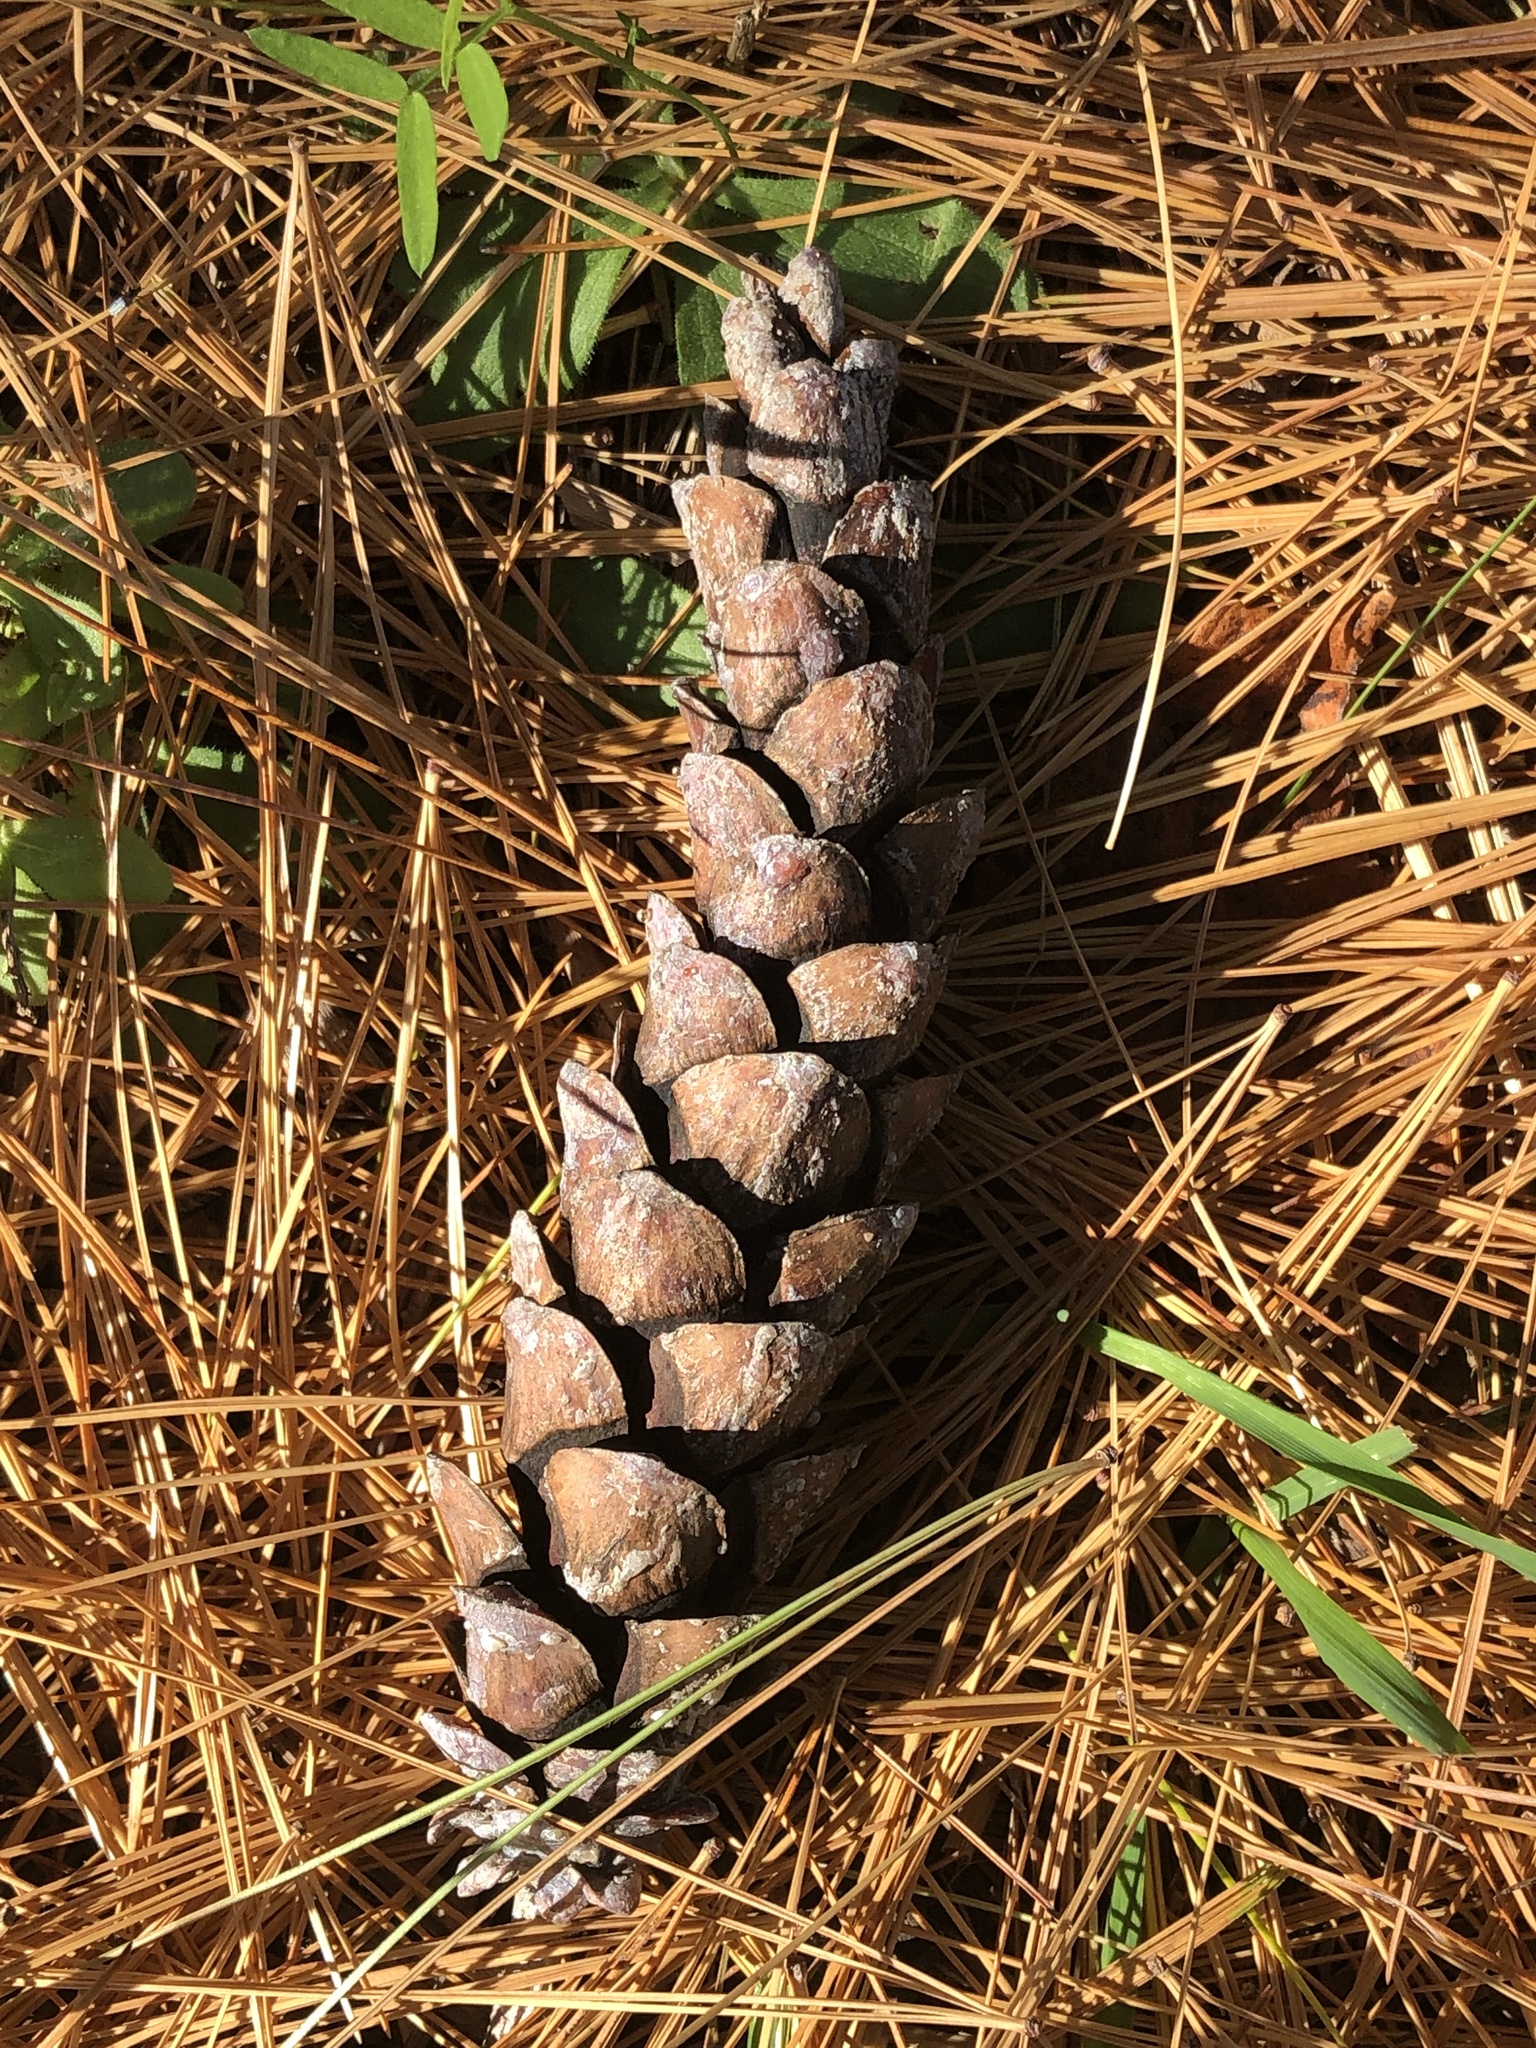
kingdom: Plantae
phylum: Tracheophyta
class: Pinopsida
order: Pinales
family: Pinaceae
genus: Pinus
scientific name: Pinus strobus
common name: Weymouth pine
